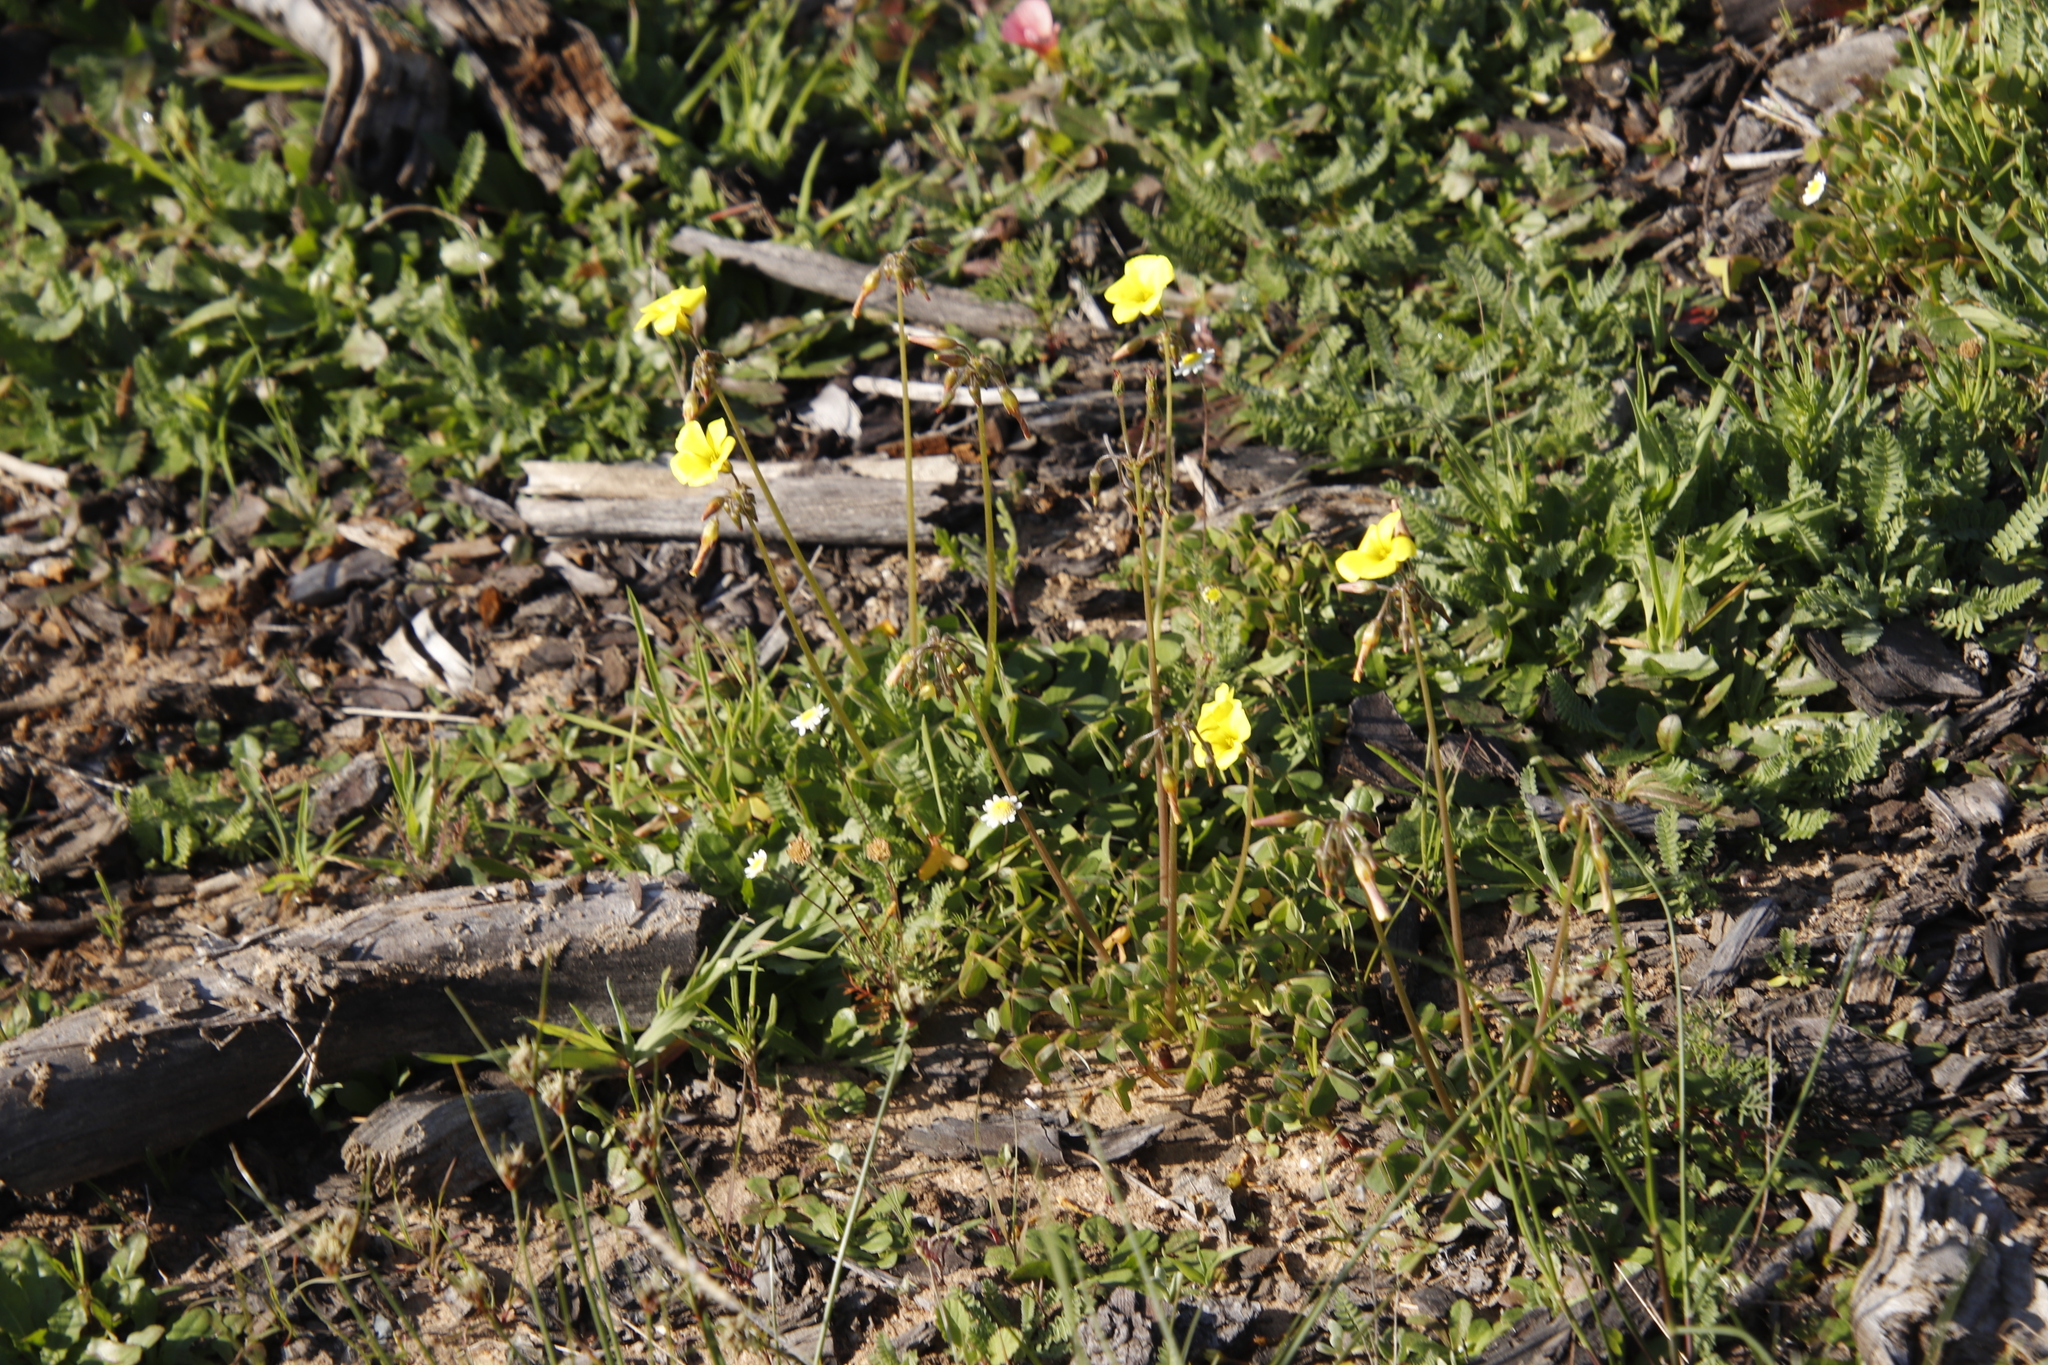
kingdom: Plantae
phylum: Tracheophyta
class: Magnoliopsida
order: Oxalidales
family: Oxalidaceae
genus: Oxalis
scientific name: Oxalis pes-caprae
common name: Bermuda-buttercup
